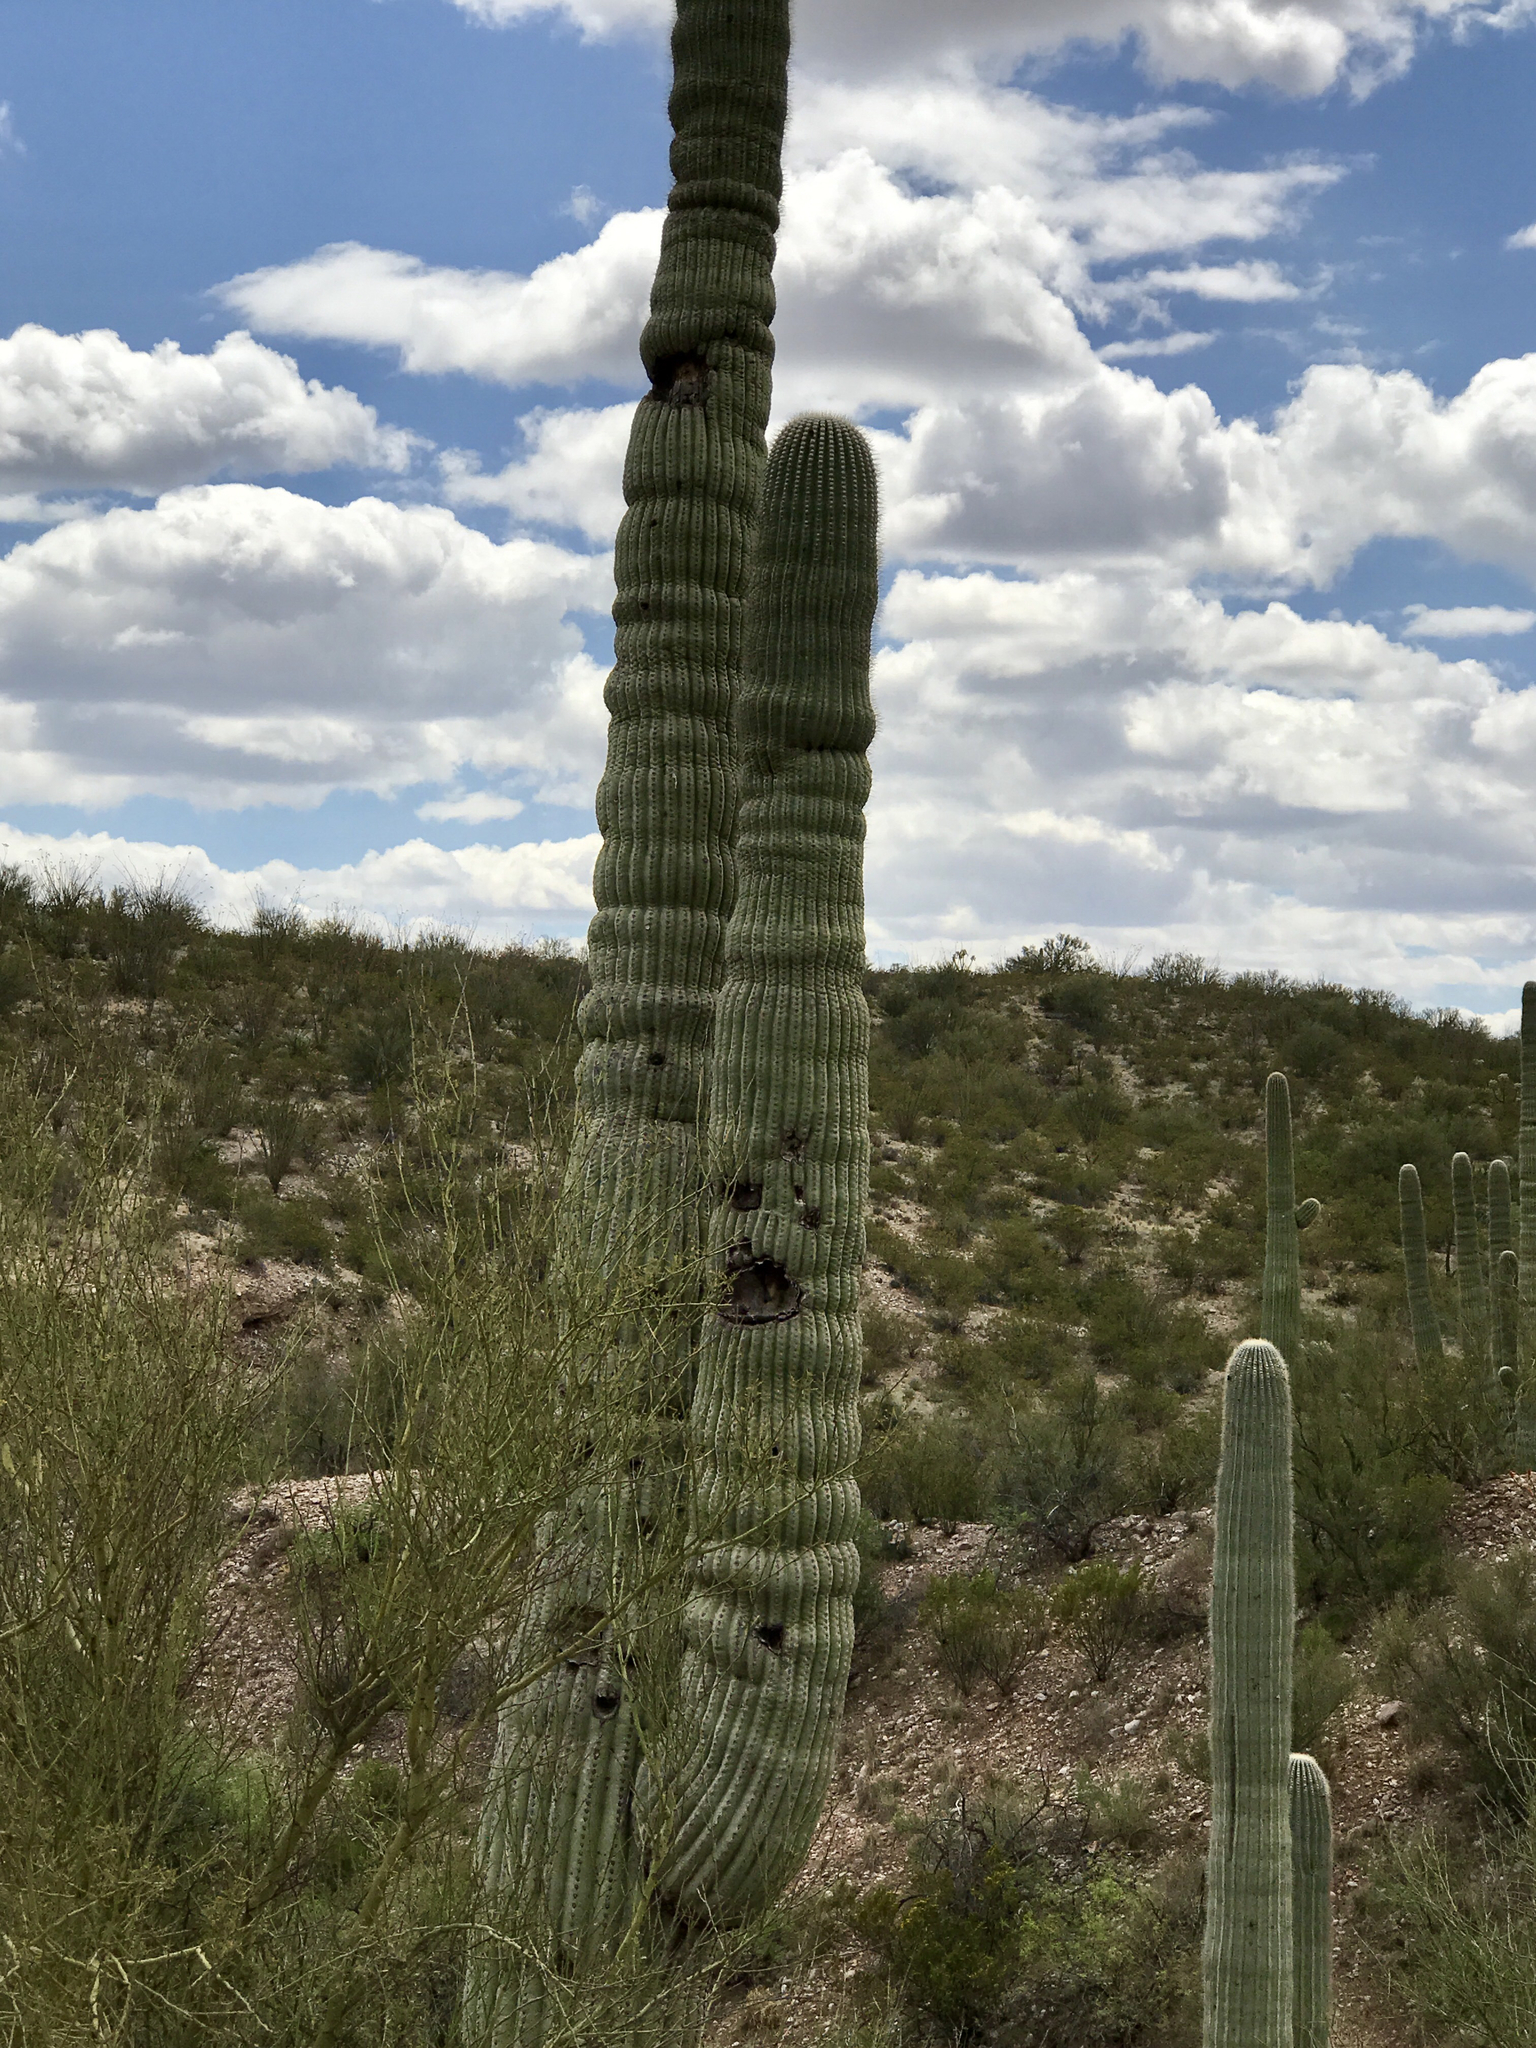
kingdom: Plantae
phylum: Tracheophyta
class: Magnoliopsida
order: Caryophyllales
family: Cactaceae
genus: Carnegiea
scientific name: Carnegiea gigantea
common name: Saguaro
